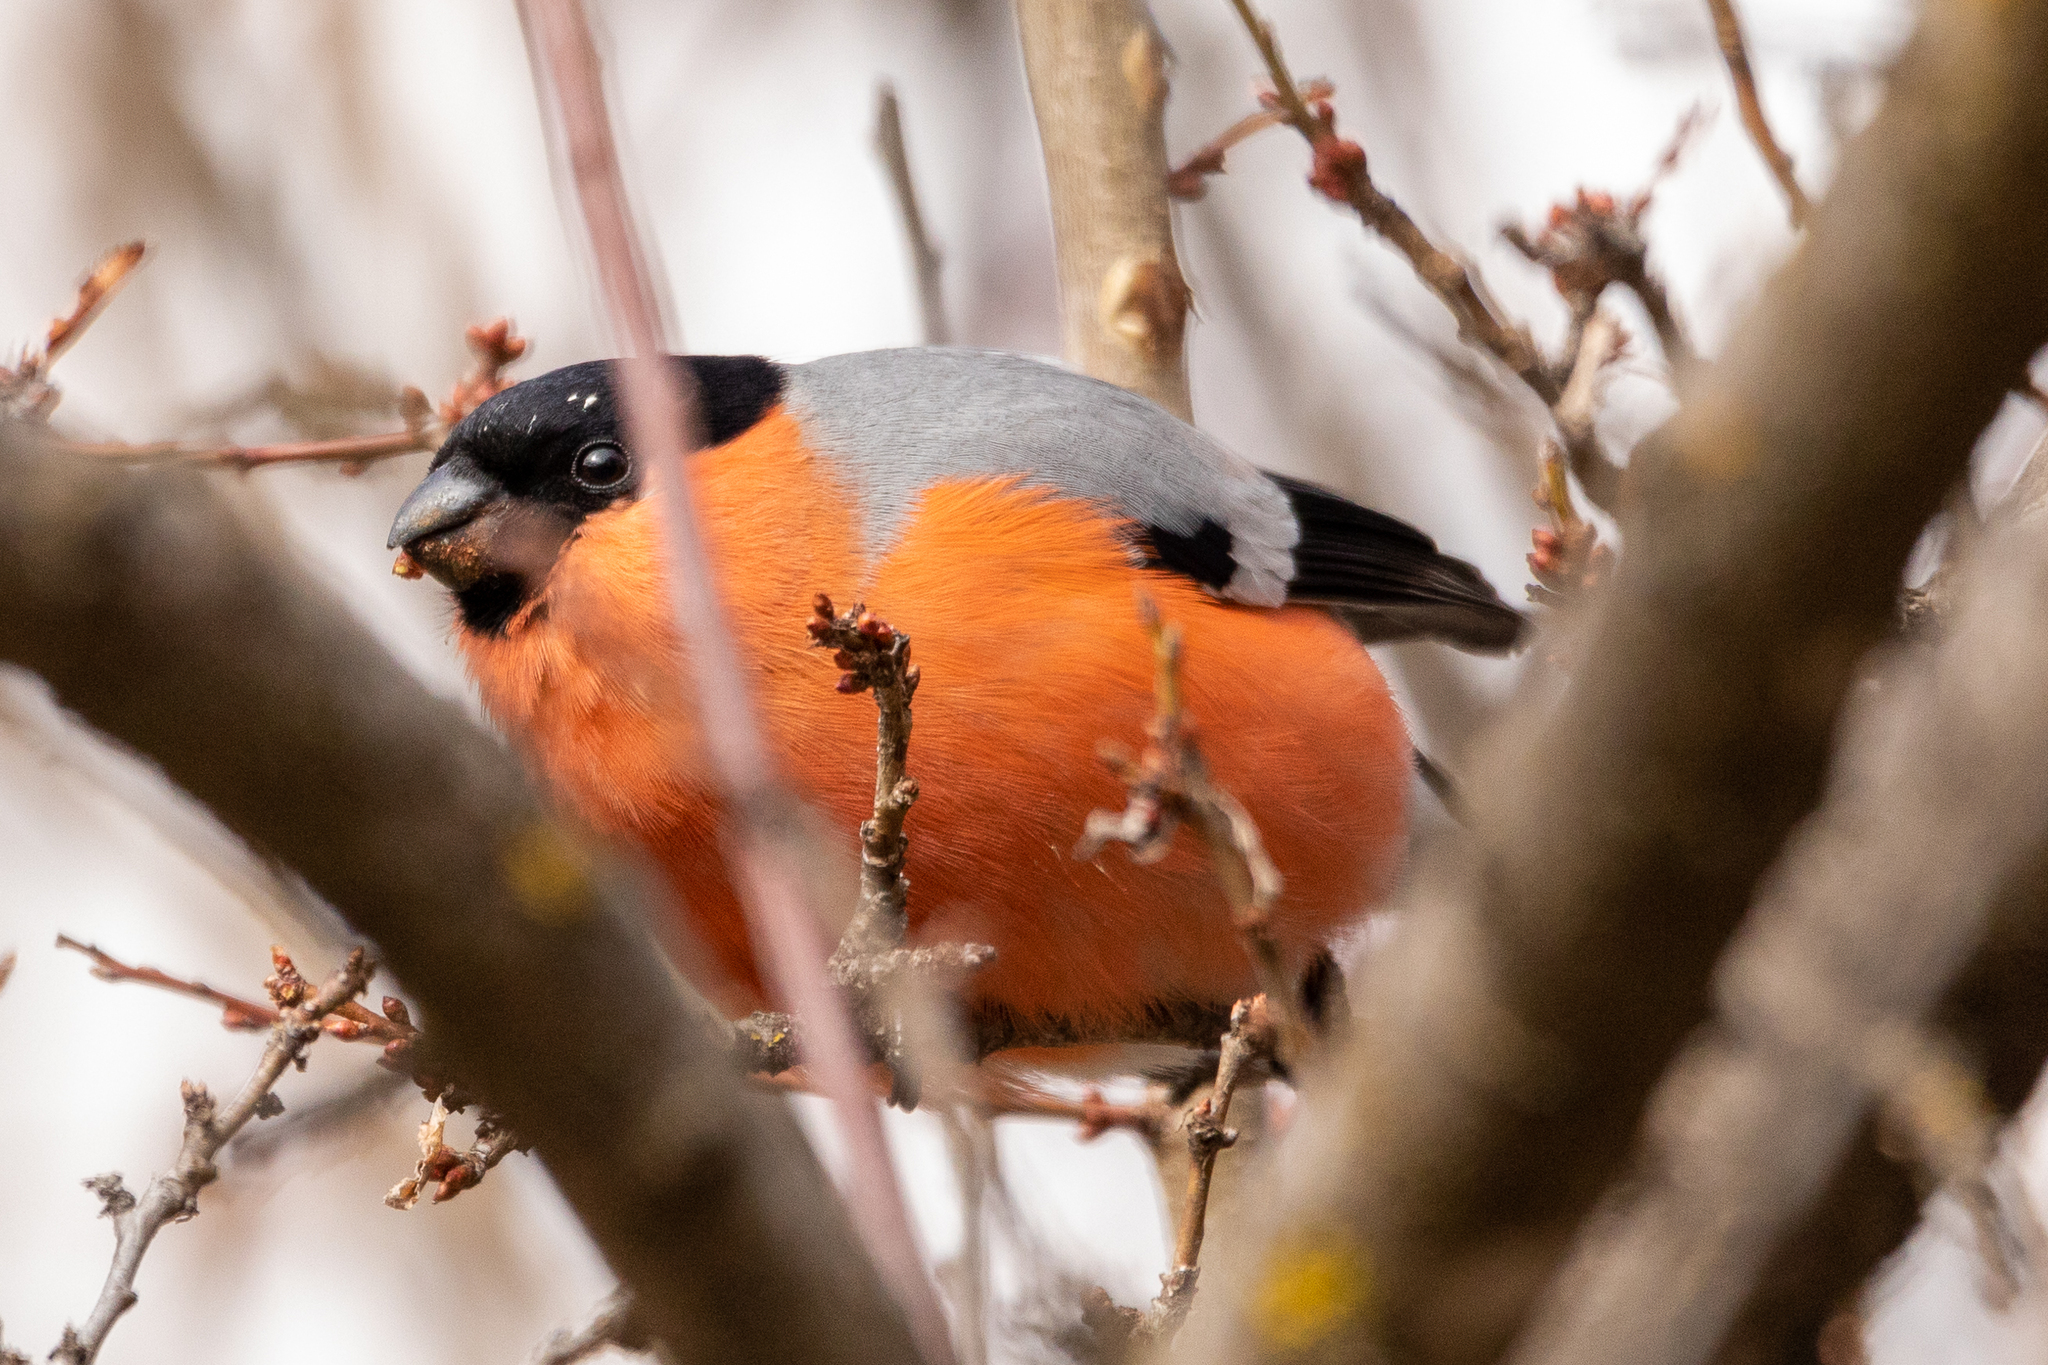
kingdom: Animalia
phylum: Chordata
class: Aves
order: Passeriformes
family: Fringillidae
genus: Pyrrhula
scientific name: Pyrrhula pyrrhula
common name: Eurasian bullfinch
